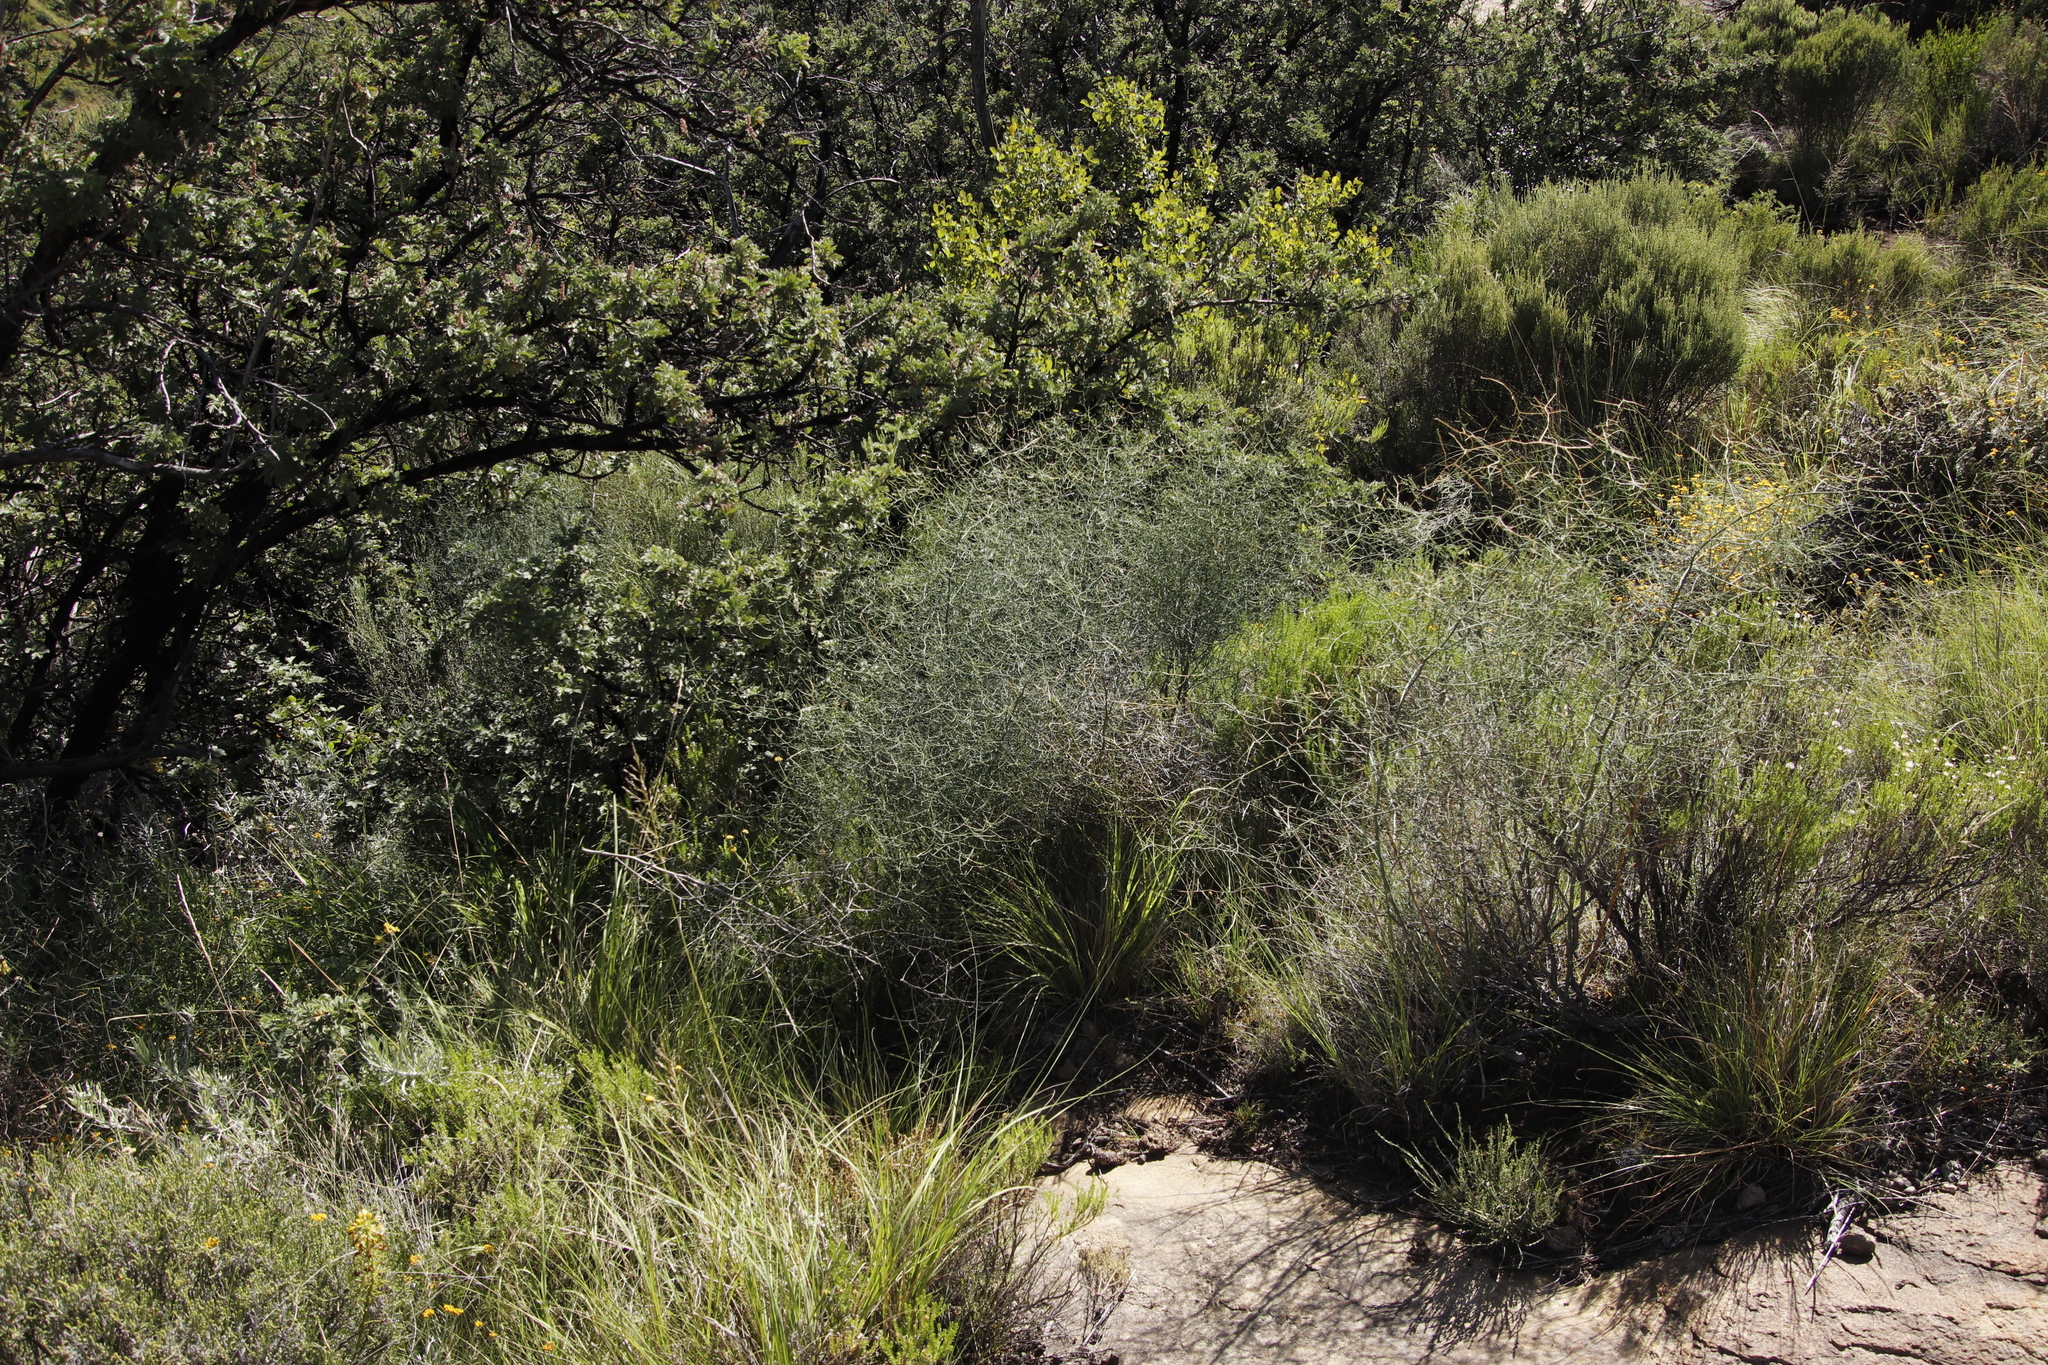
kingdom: Plantae
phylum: Tracheophyta
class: Liliopsida
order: Asparagales
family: Asparagaceae
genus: Asparagus
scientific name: Asparagus denudatus
